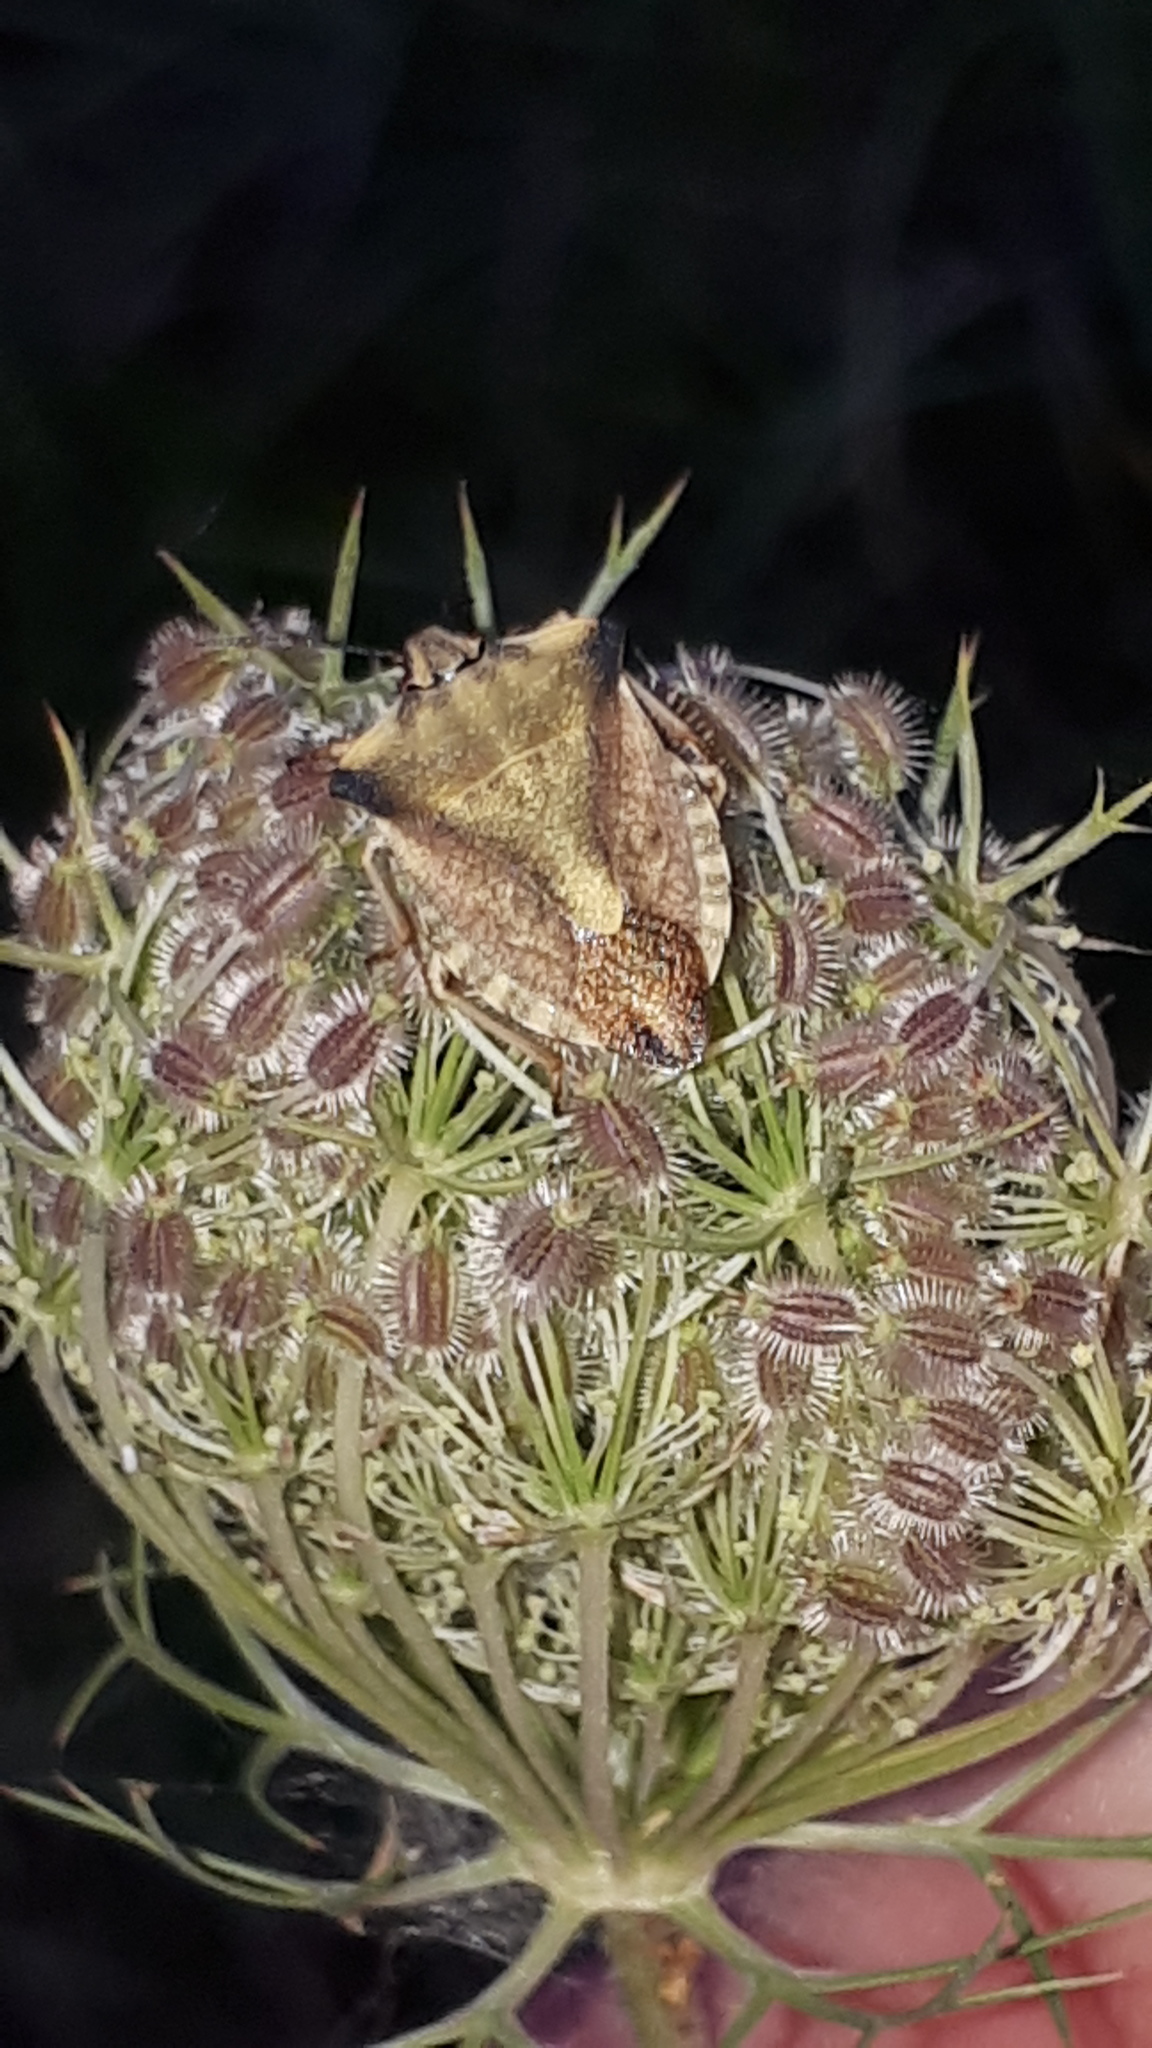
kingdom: Animalia
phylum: Arthropoda
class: Insecta
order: Hemiptera
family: Pentatomidae
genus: Carpocoris
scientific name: Carpocoris fuscispinus
